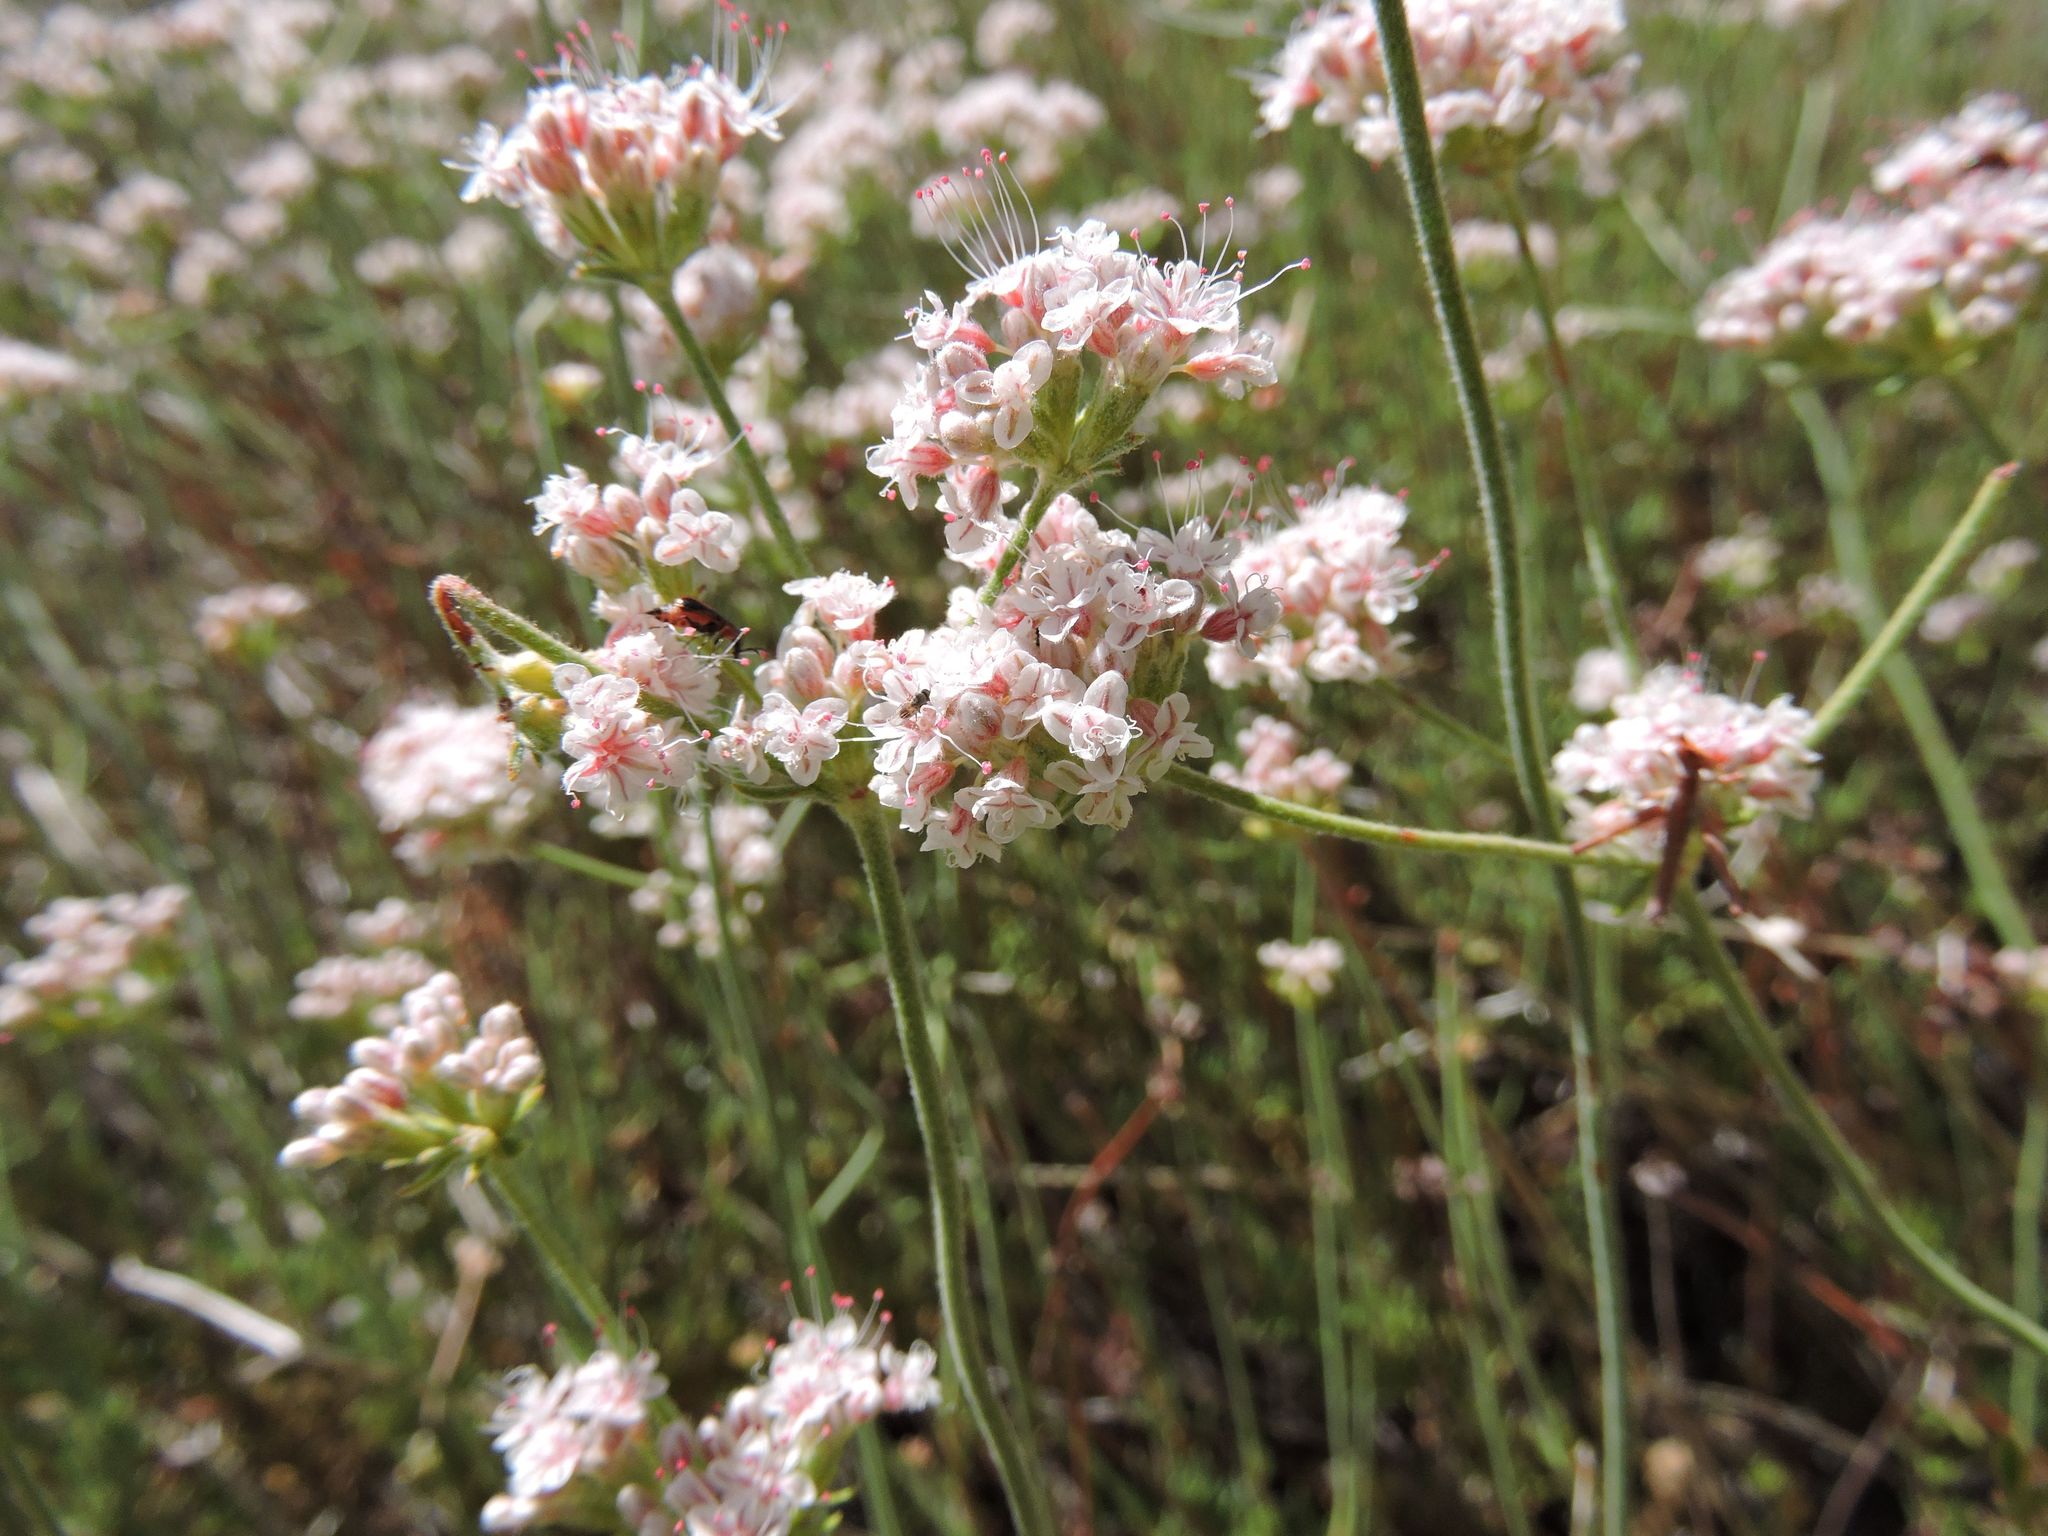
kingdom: Plantae
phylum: Tracheophyta
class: Magnoliopsida
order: Caryophyllales
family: Polygonaceae
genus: Eriogonum
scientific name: Eriogonum fasciculatum
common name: California wild buckwheat
